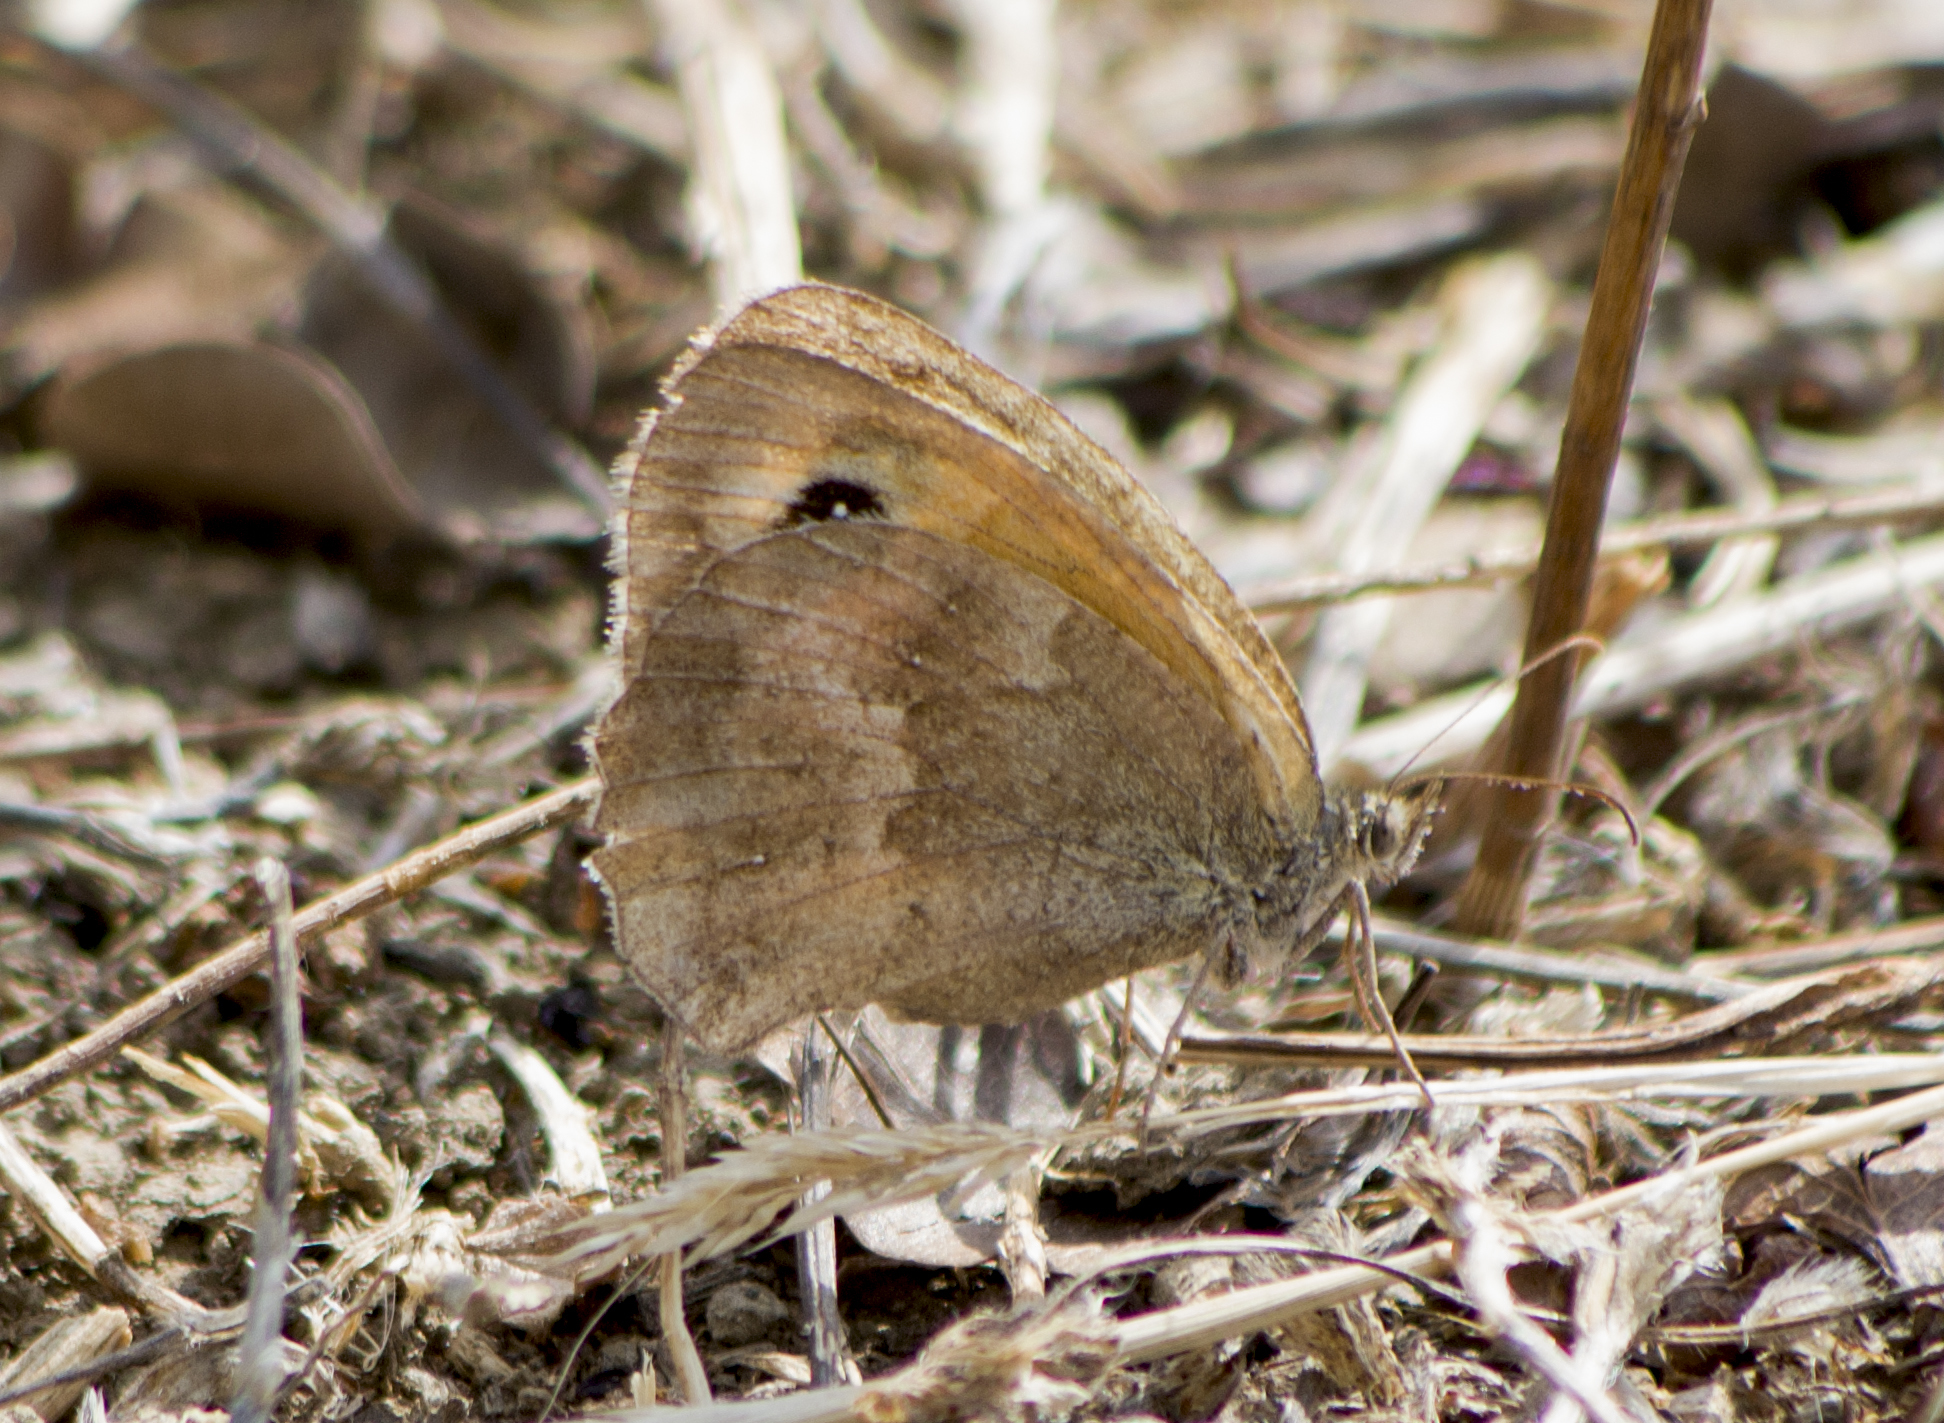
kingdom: Animalia
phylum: Arthropoda
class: Insecta
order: Lepidoptera
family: Nymphalidae
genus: Pyronia
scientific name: Pyronia tithonus
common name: Gatekeeper
